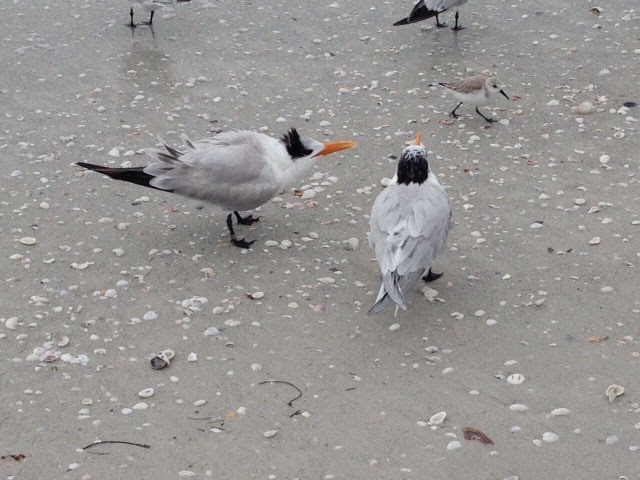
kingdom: Animalia
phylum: Chordata
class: Aves
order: Charadriiformes
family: Laridae
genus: Thalasseus
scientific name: Thalasseus maximus
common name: Royal tern
